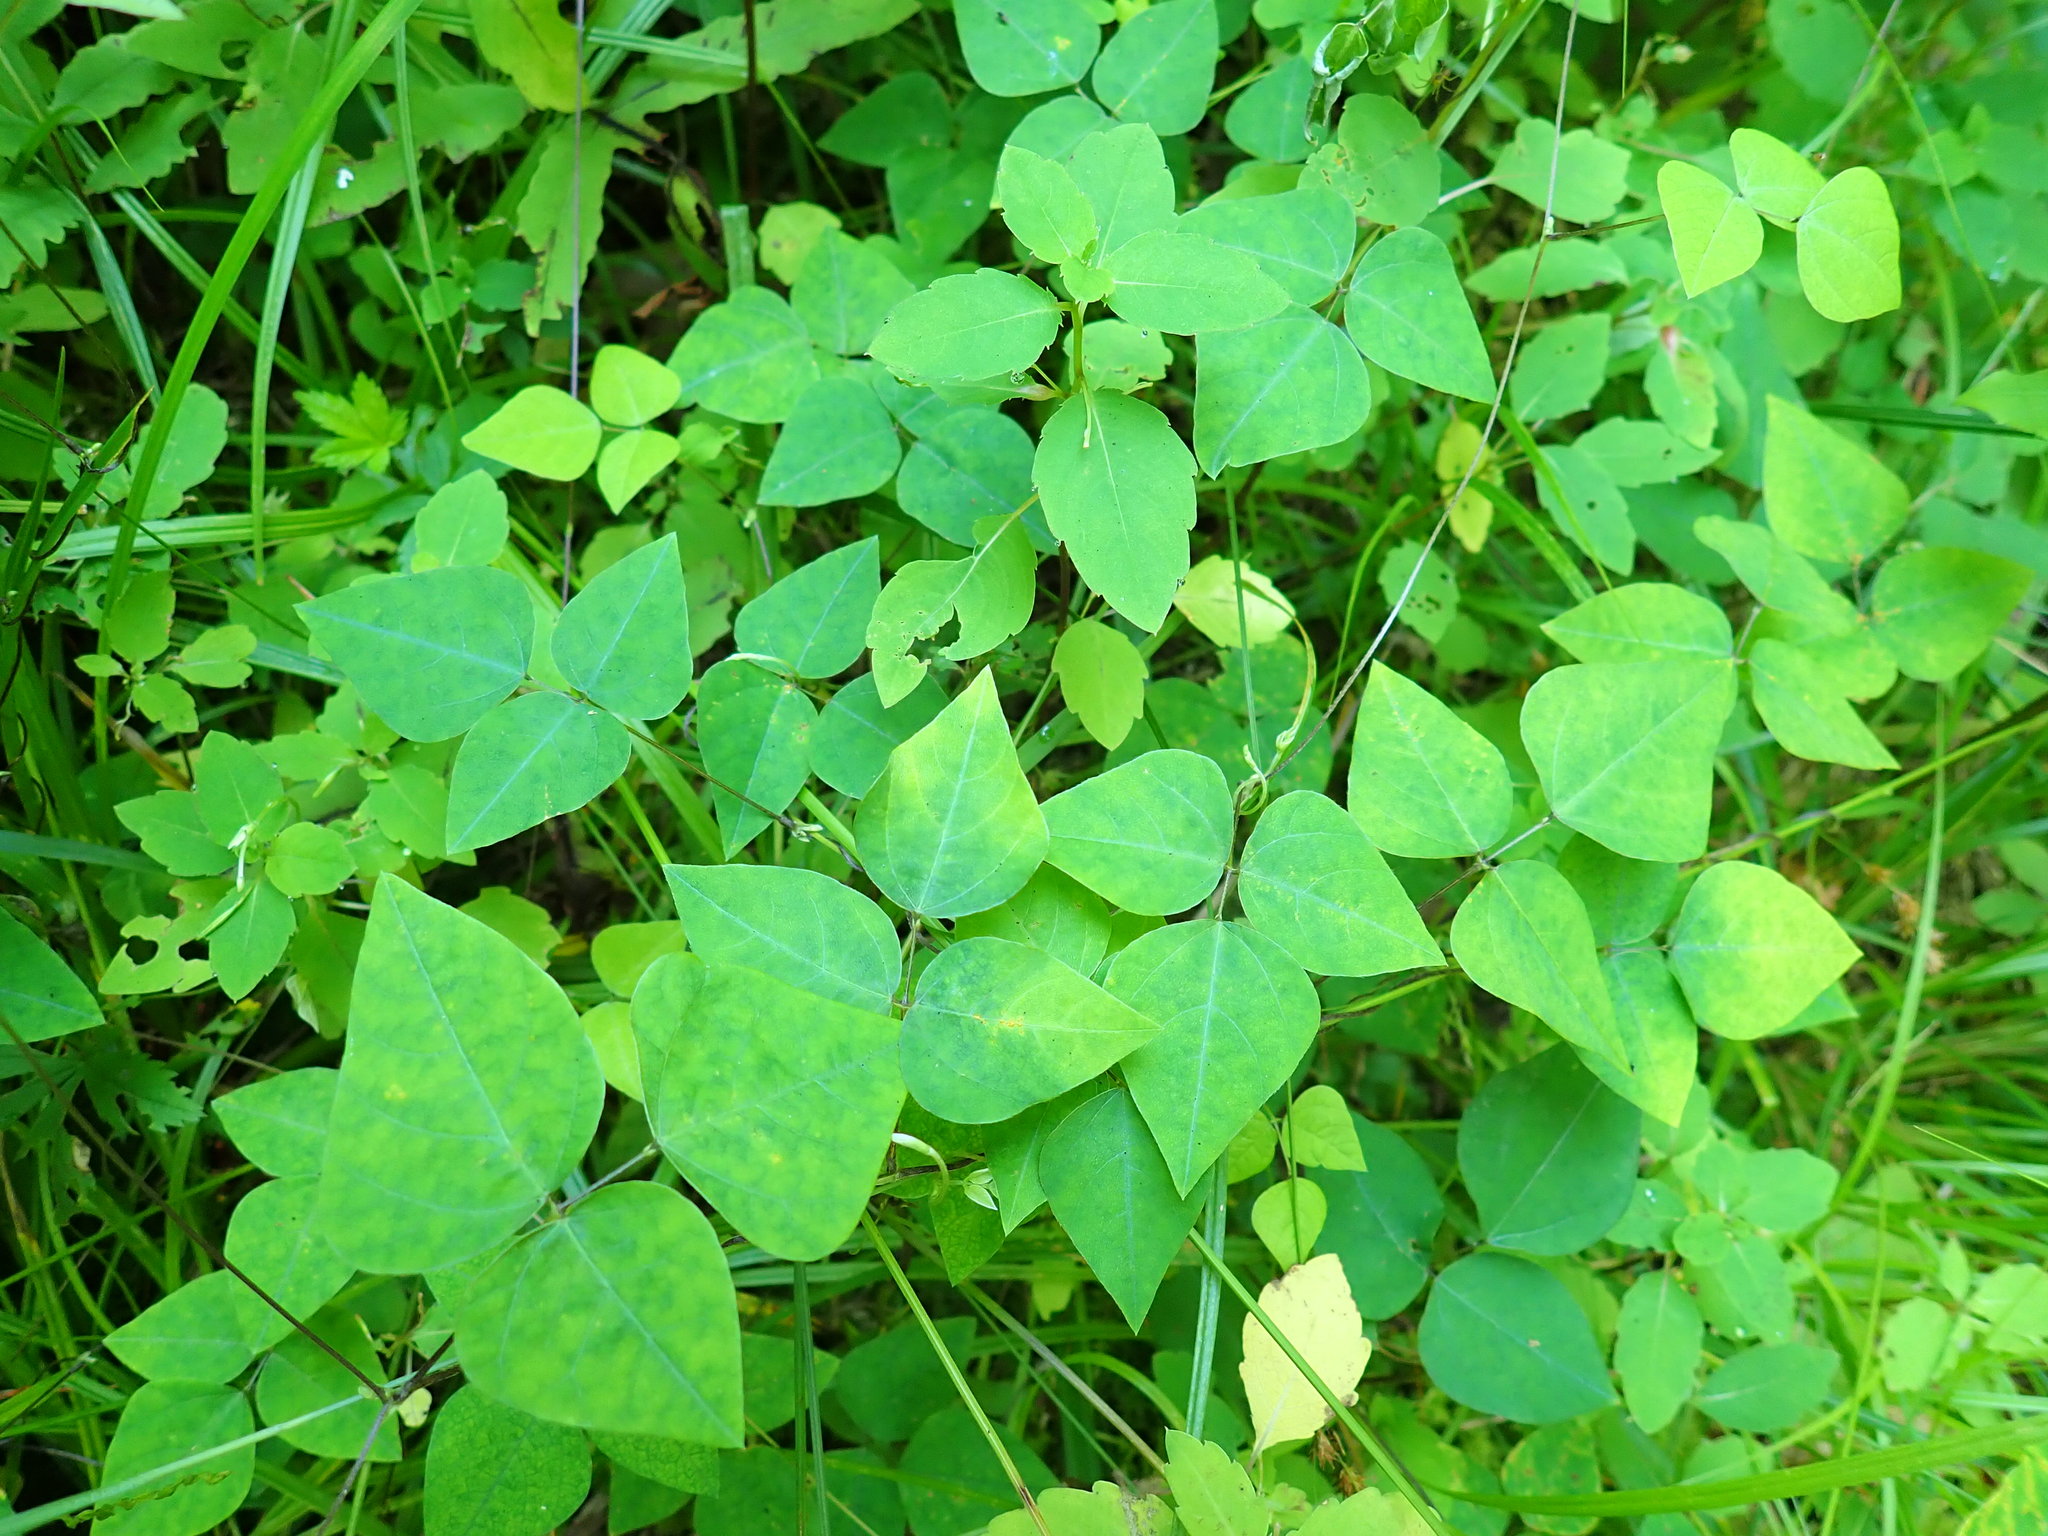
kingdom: Plantae
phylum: Tracheophyta
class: Magnoliopsida
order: Fabales
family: Fabaceae
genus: Amphicarpaea
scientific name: Amphicarpaea bracteata
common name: American hog peanut
